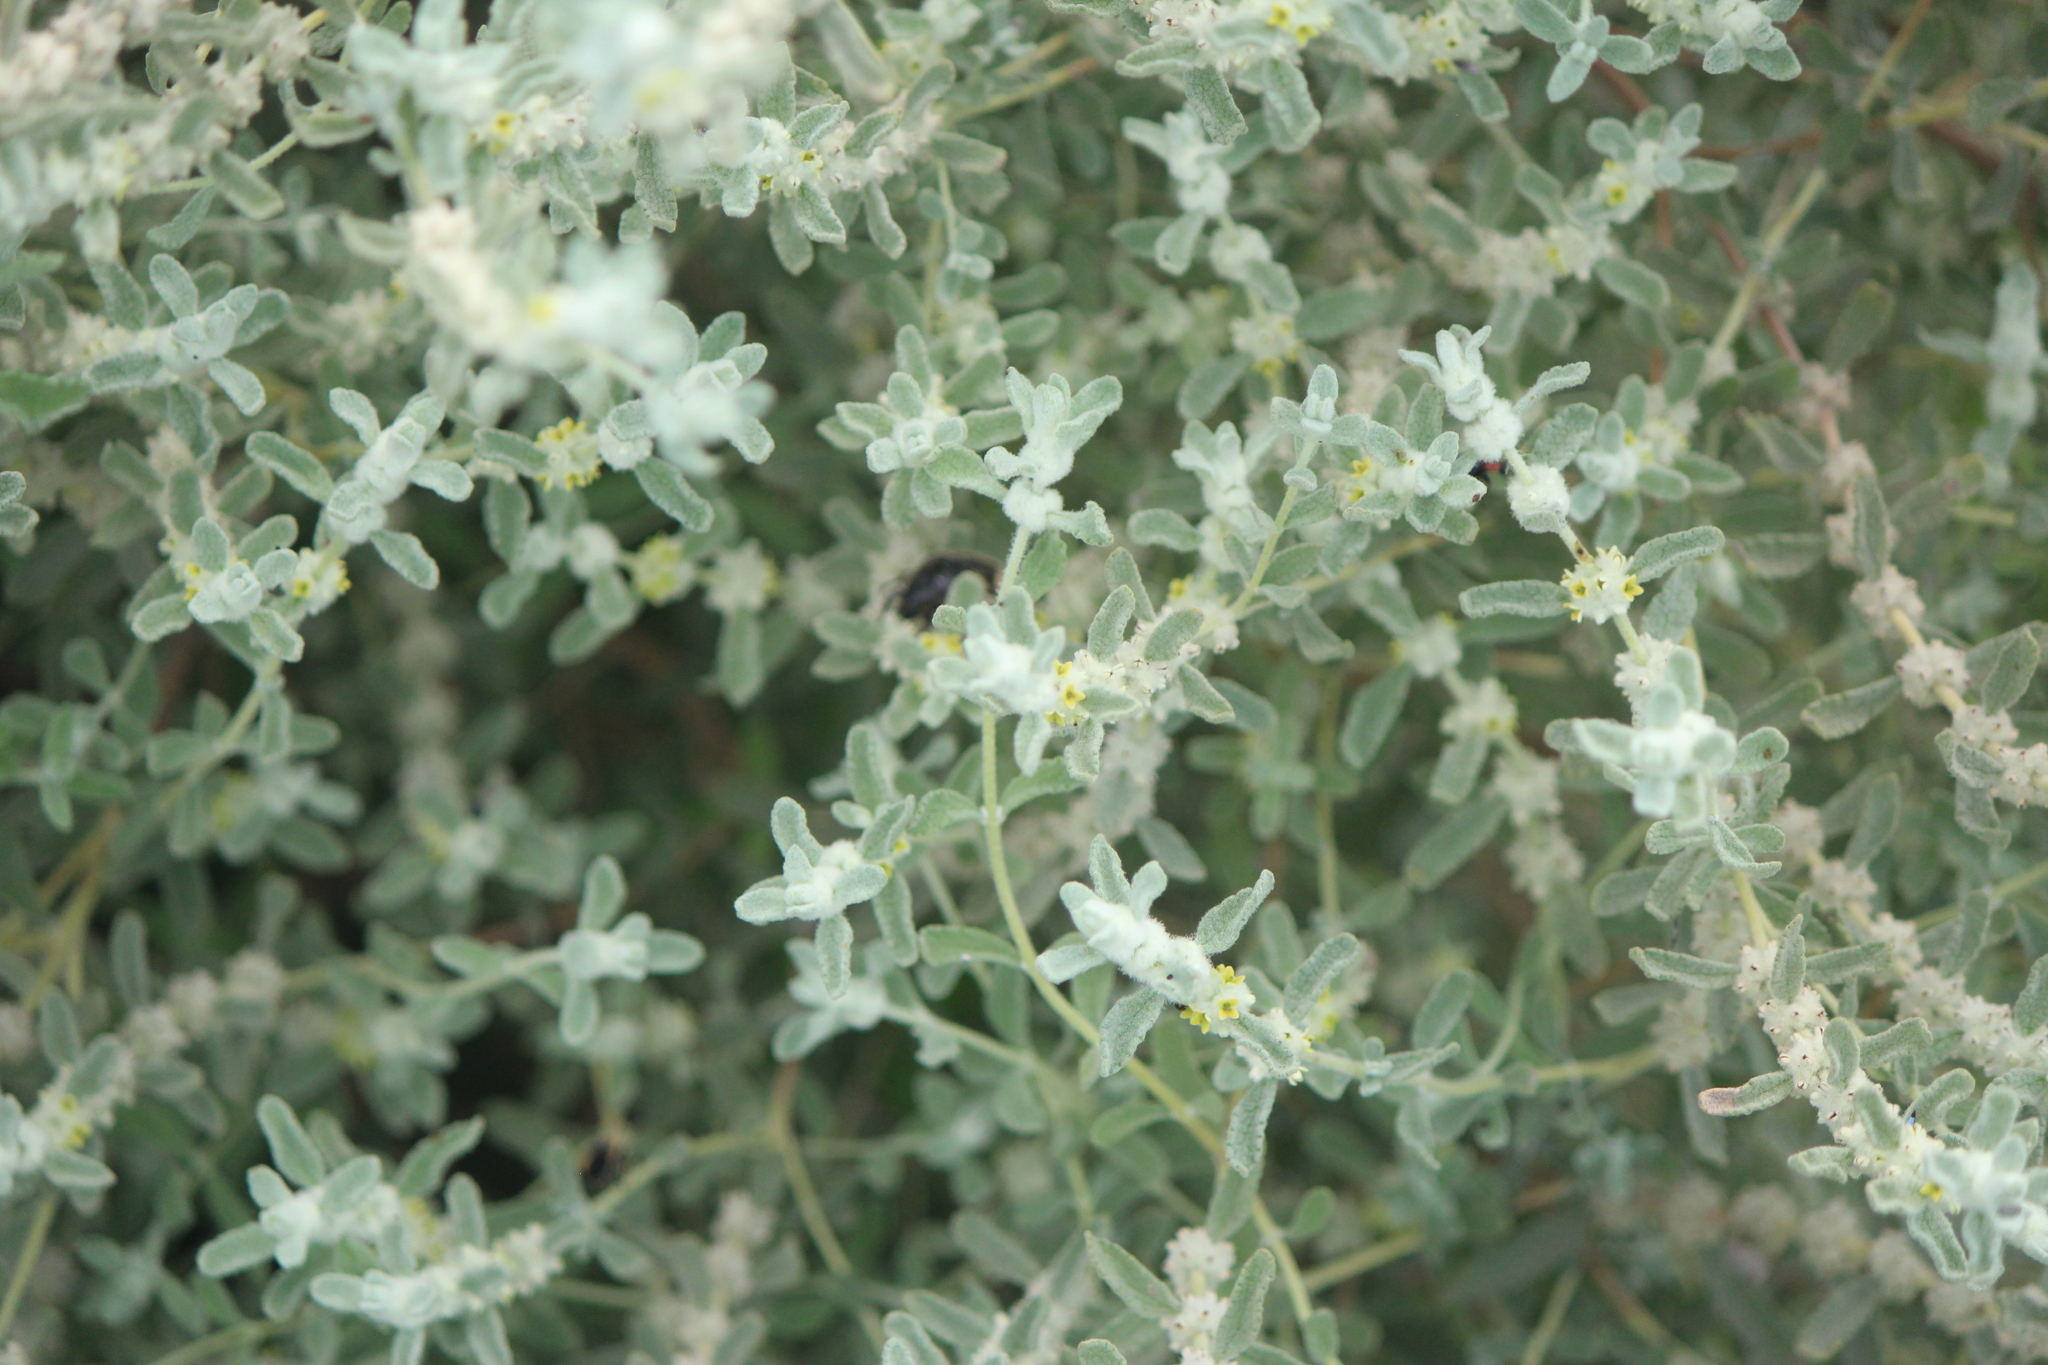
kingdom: Plantae
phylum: Tracheophyta
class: Magnoliopsida
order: Lamiales
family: Scrophulariaceae
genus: Buddleja
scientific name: Buddleja scordioides
